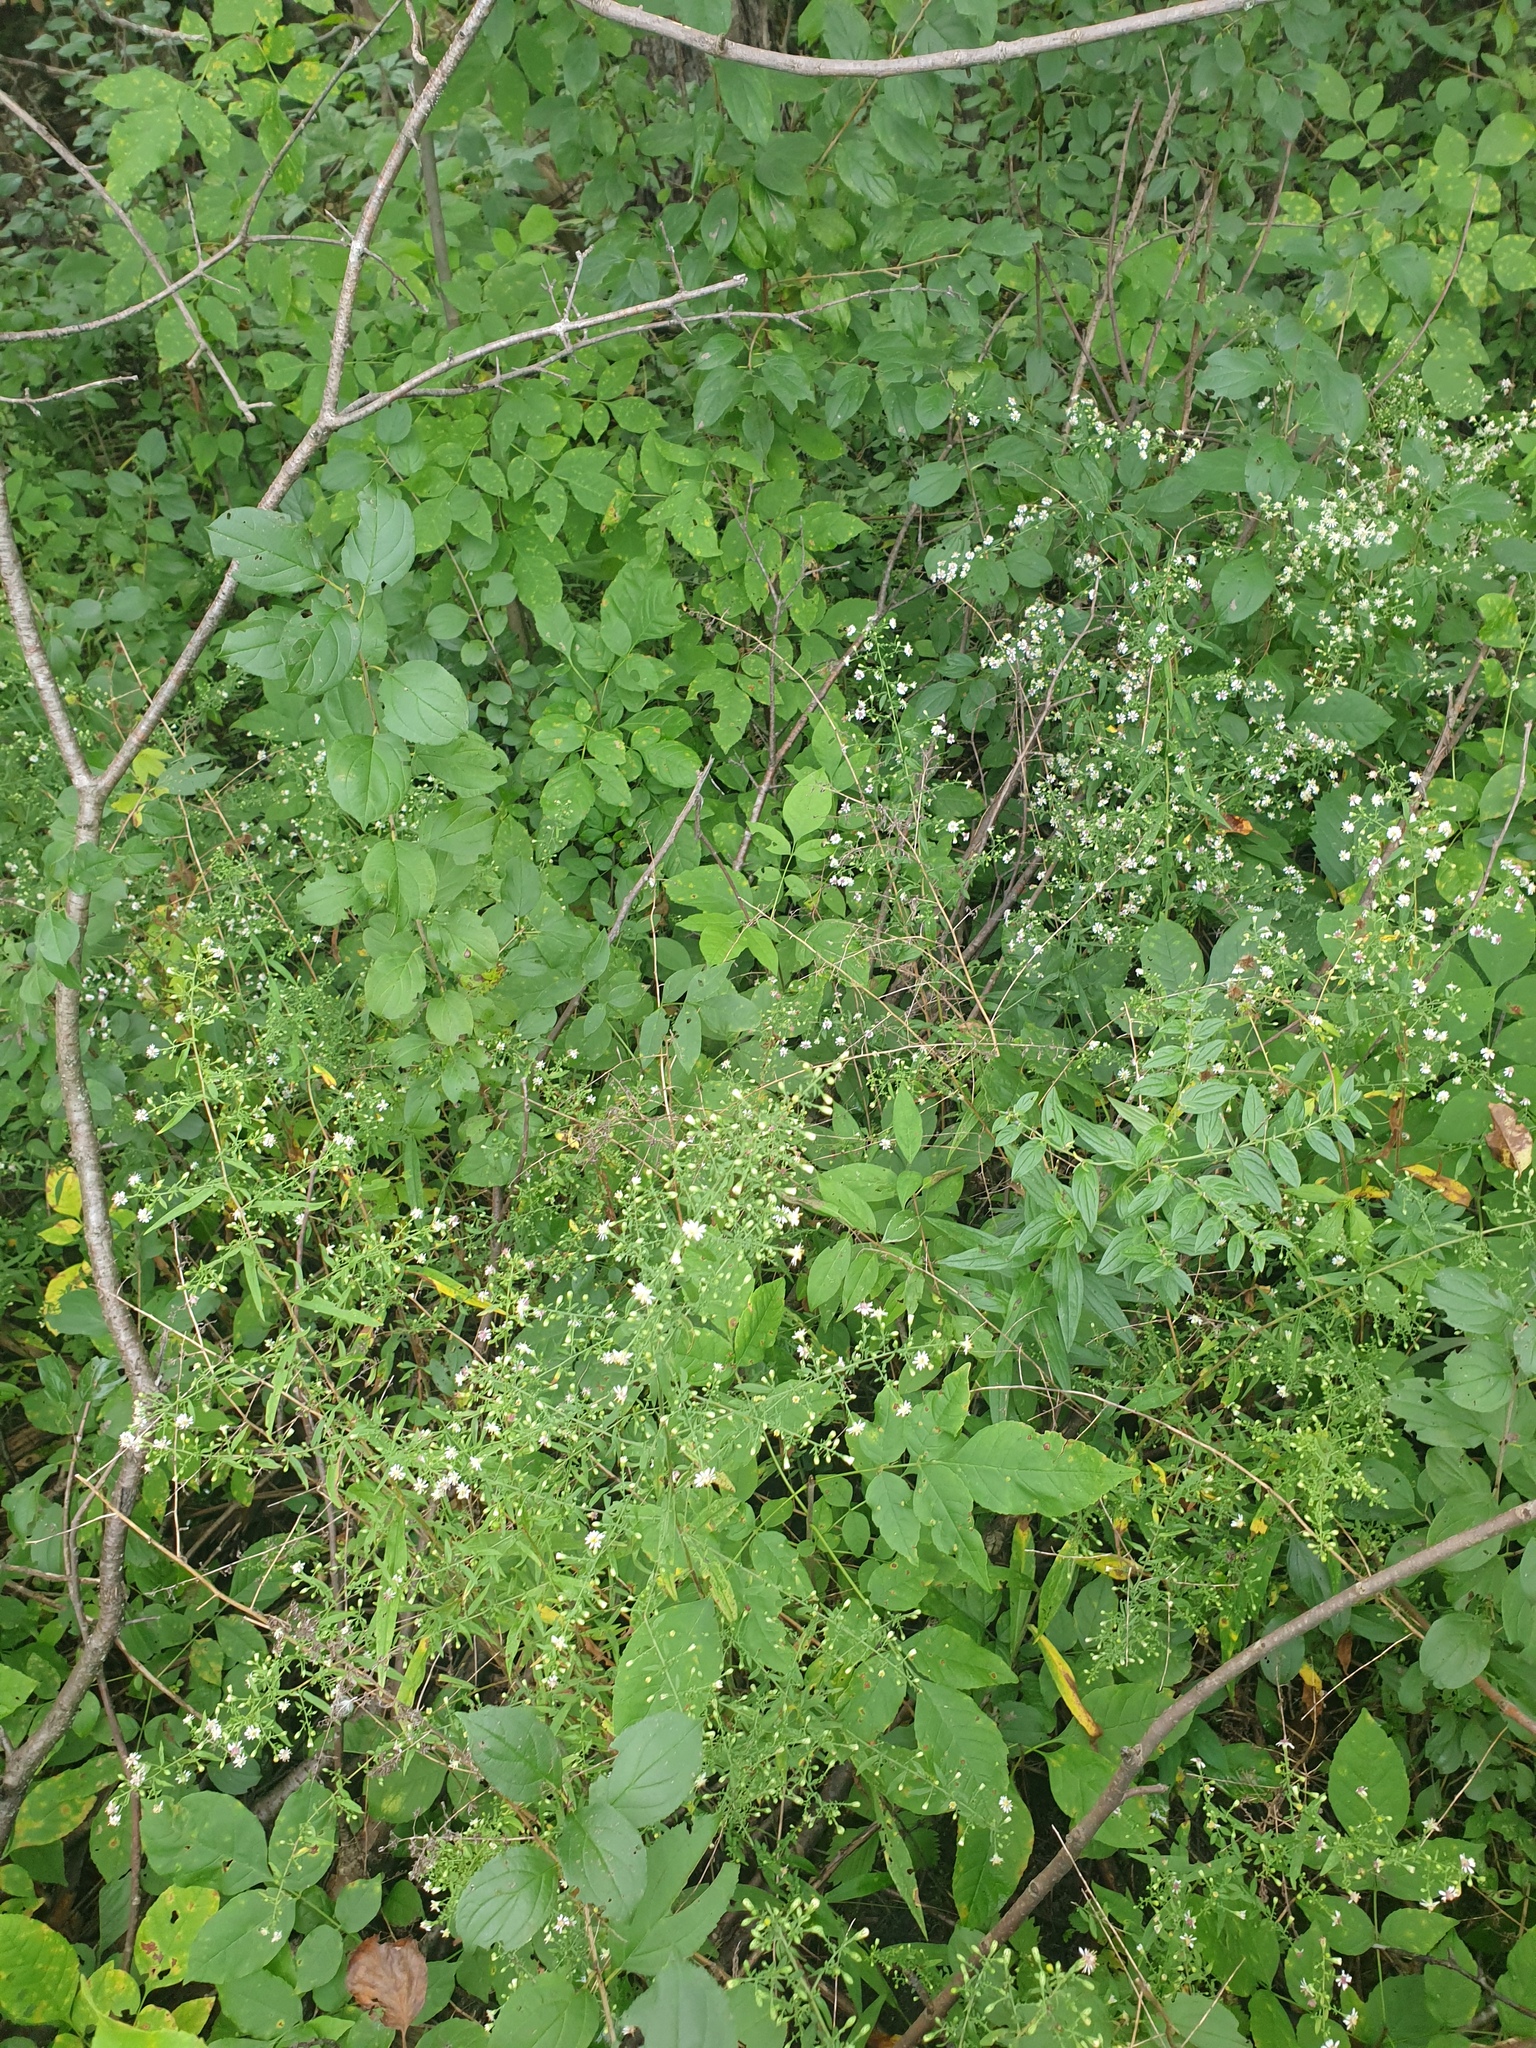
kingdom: Plantae
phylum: Tracheophyta
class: Magnoliopsida
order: Asterales
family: Asteraceae
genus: Symphyotrichum
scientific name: Symphyotrichum lateriflorum
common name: Calico aster
